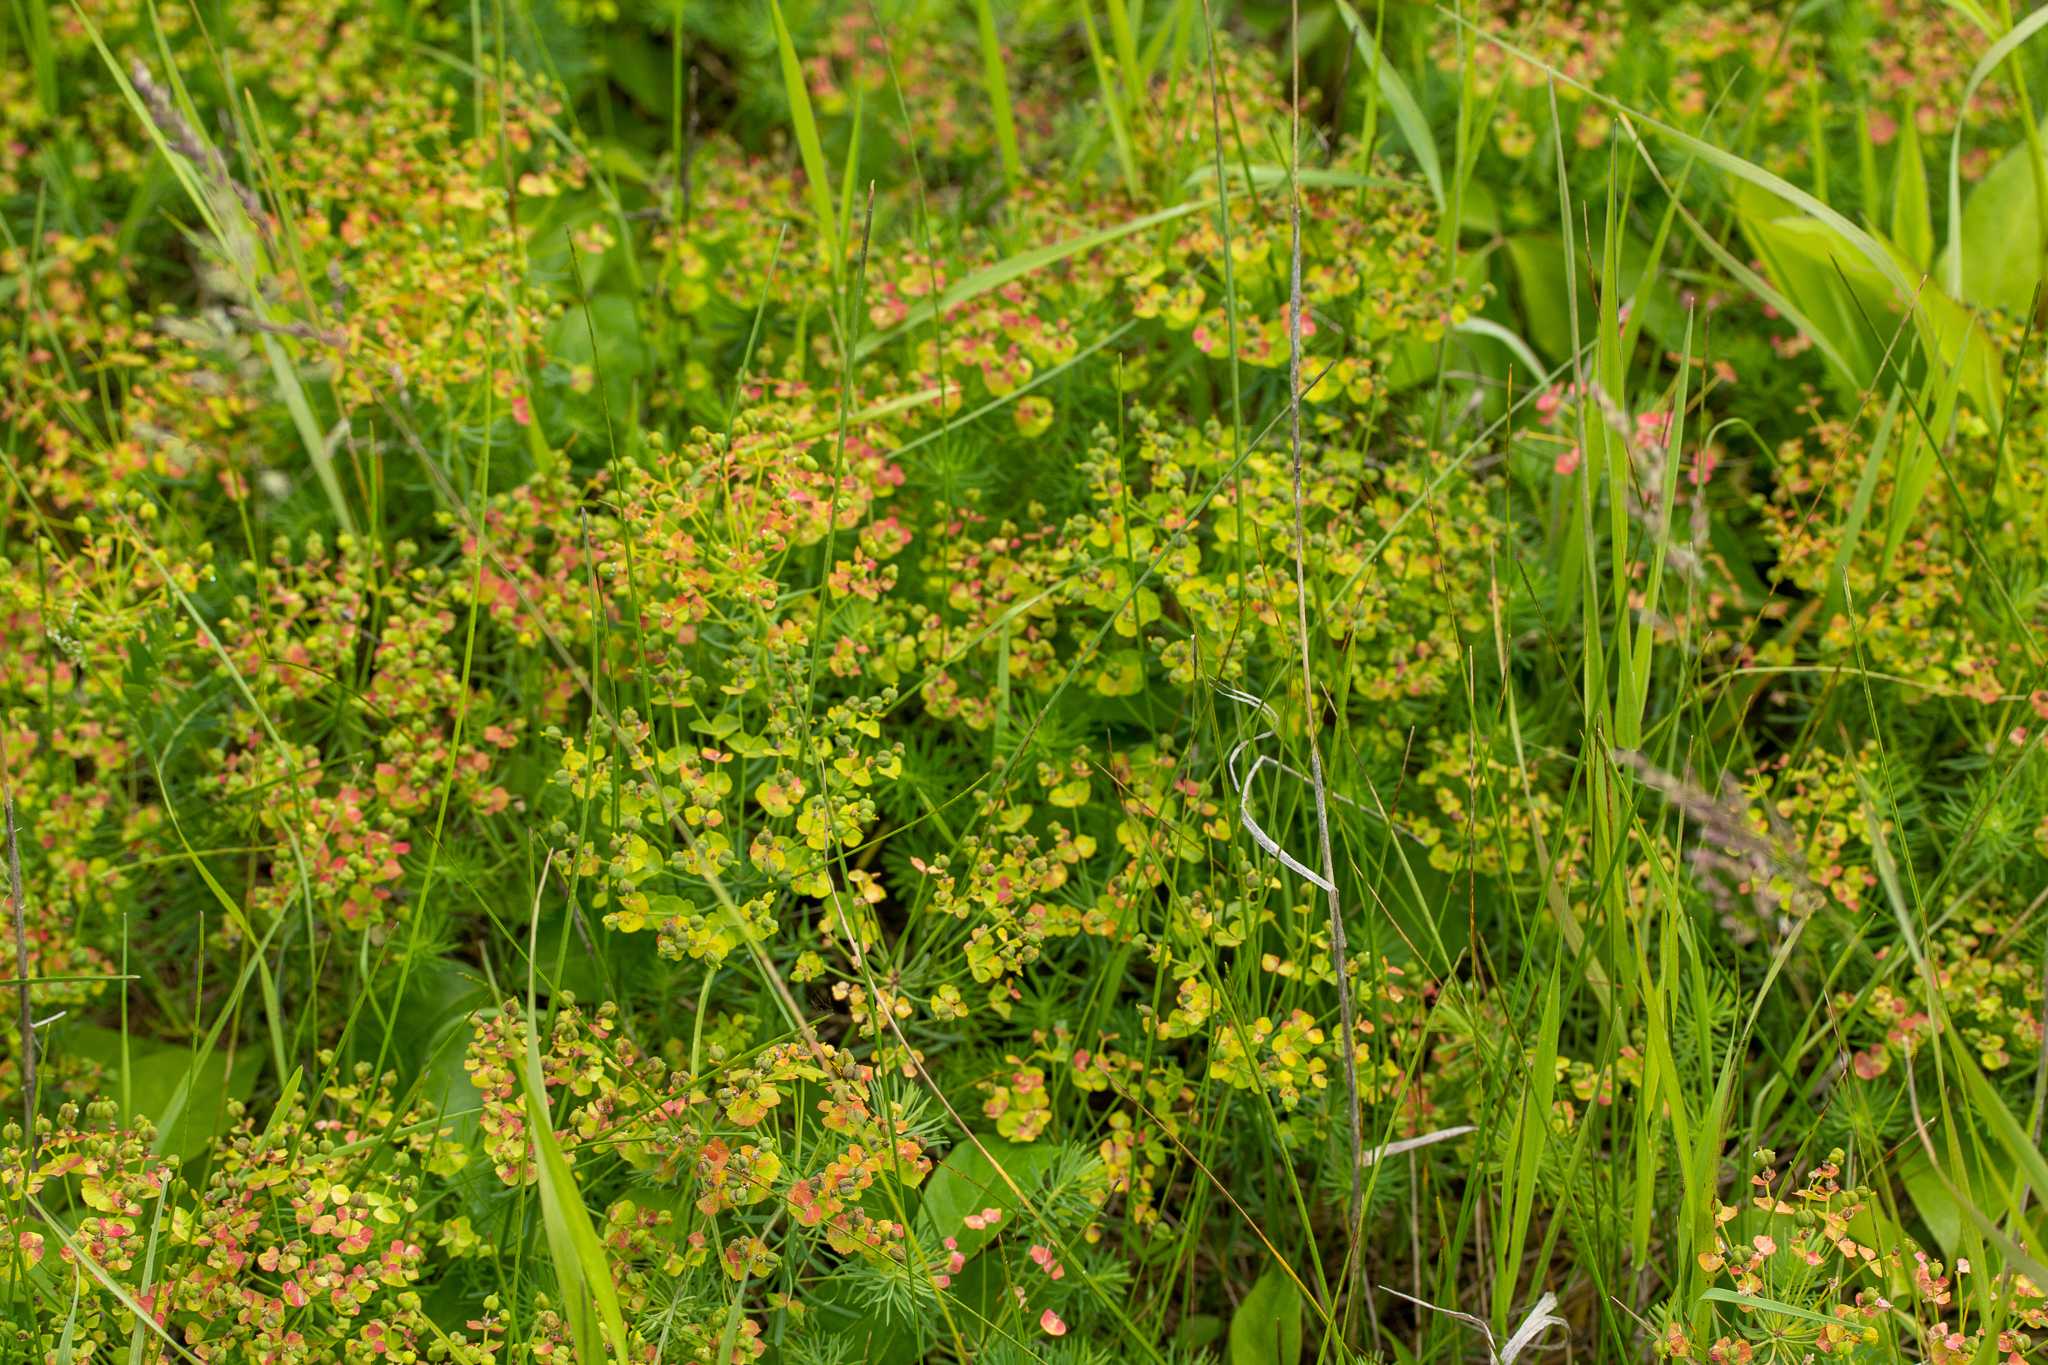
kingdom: Plantae
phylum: Tracheophyta
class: Magnoliopsida
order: Malpighiales
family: Euphorbiaceae
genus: Euphorbia
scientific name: Euphorbia cyparissias
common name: Cypress spurge
